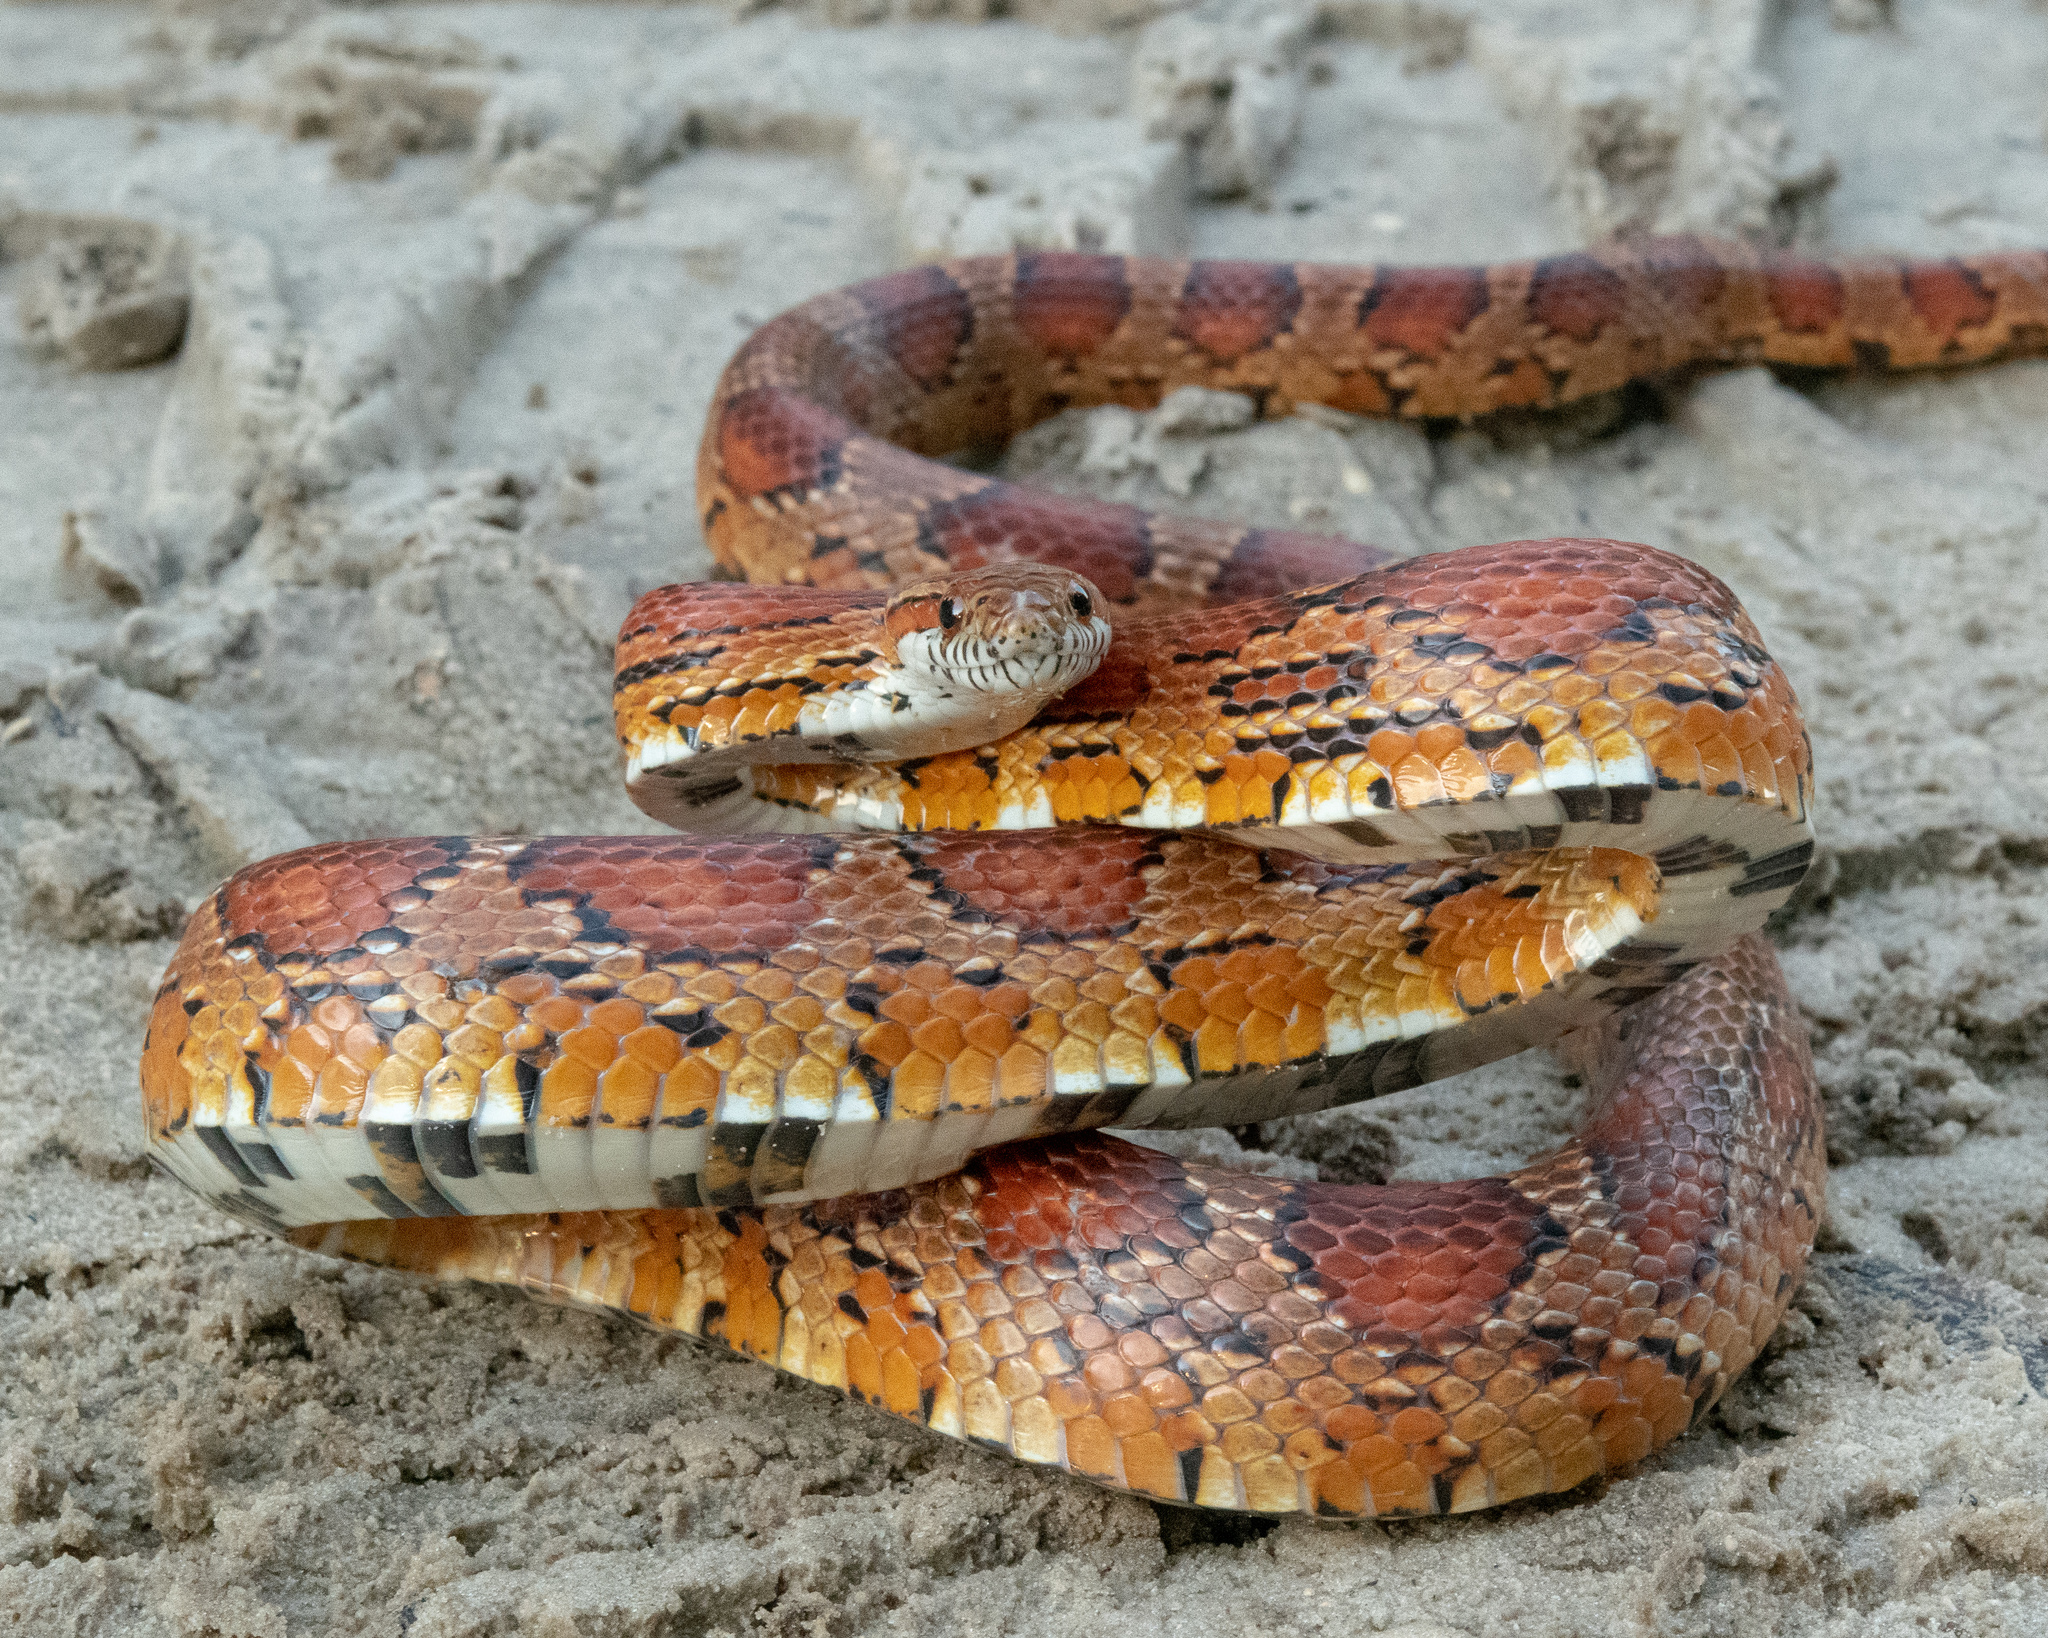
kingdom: Animalia
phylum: Chordata
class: Squamata
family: Colubridae
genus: Pantherophis
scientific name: Pantherophis guttatus
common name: Red cornsnake
